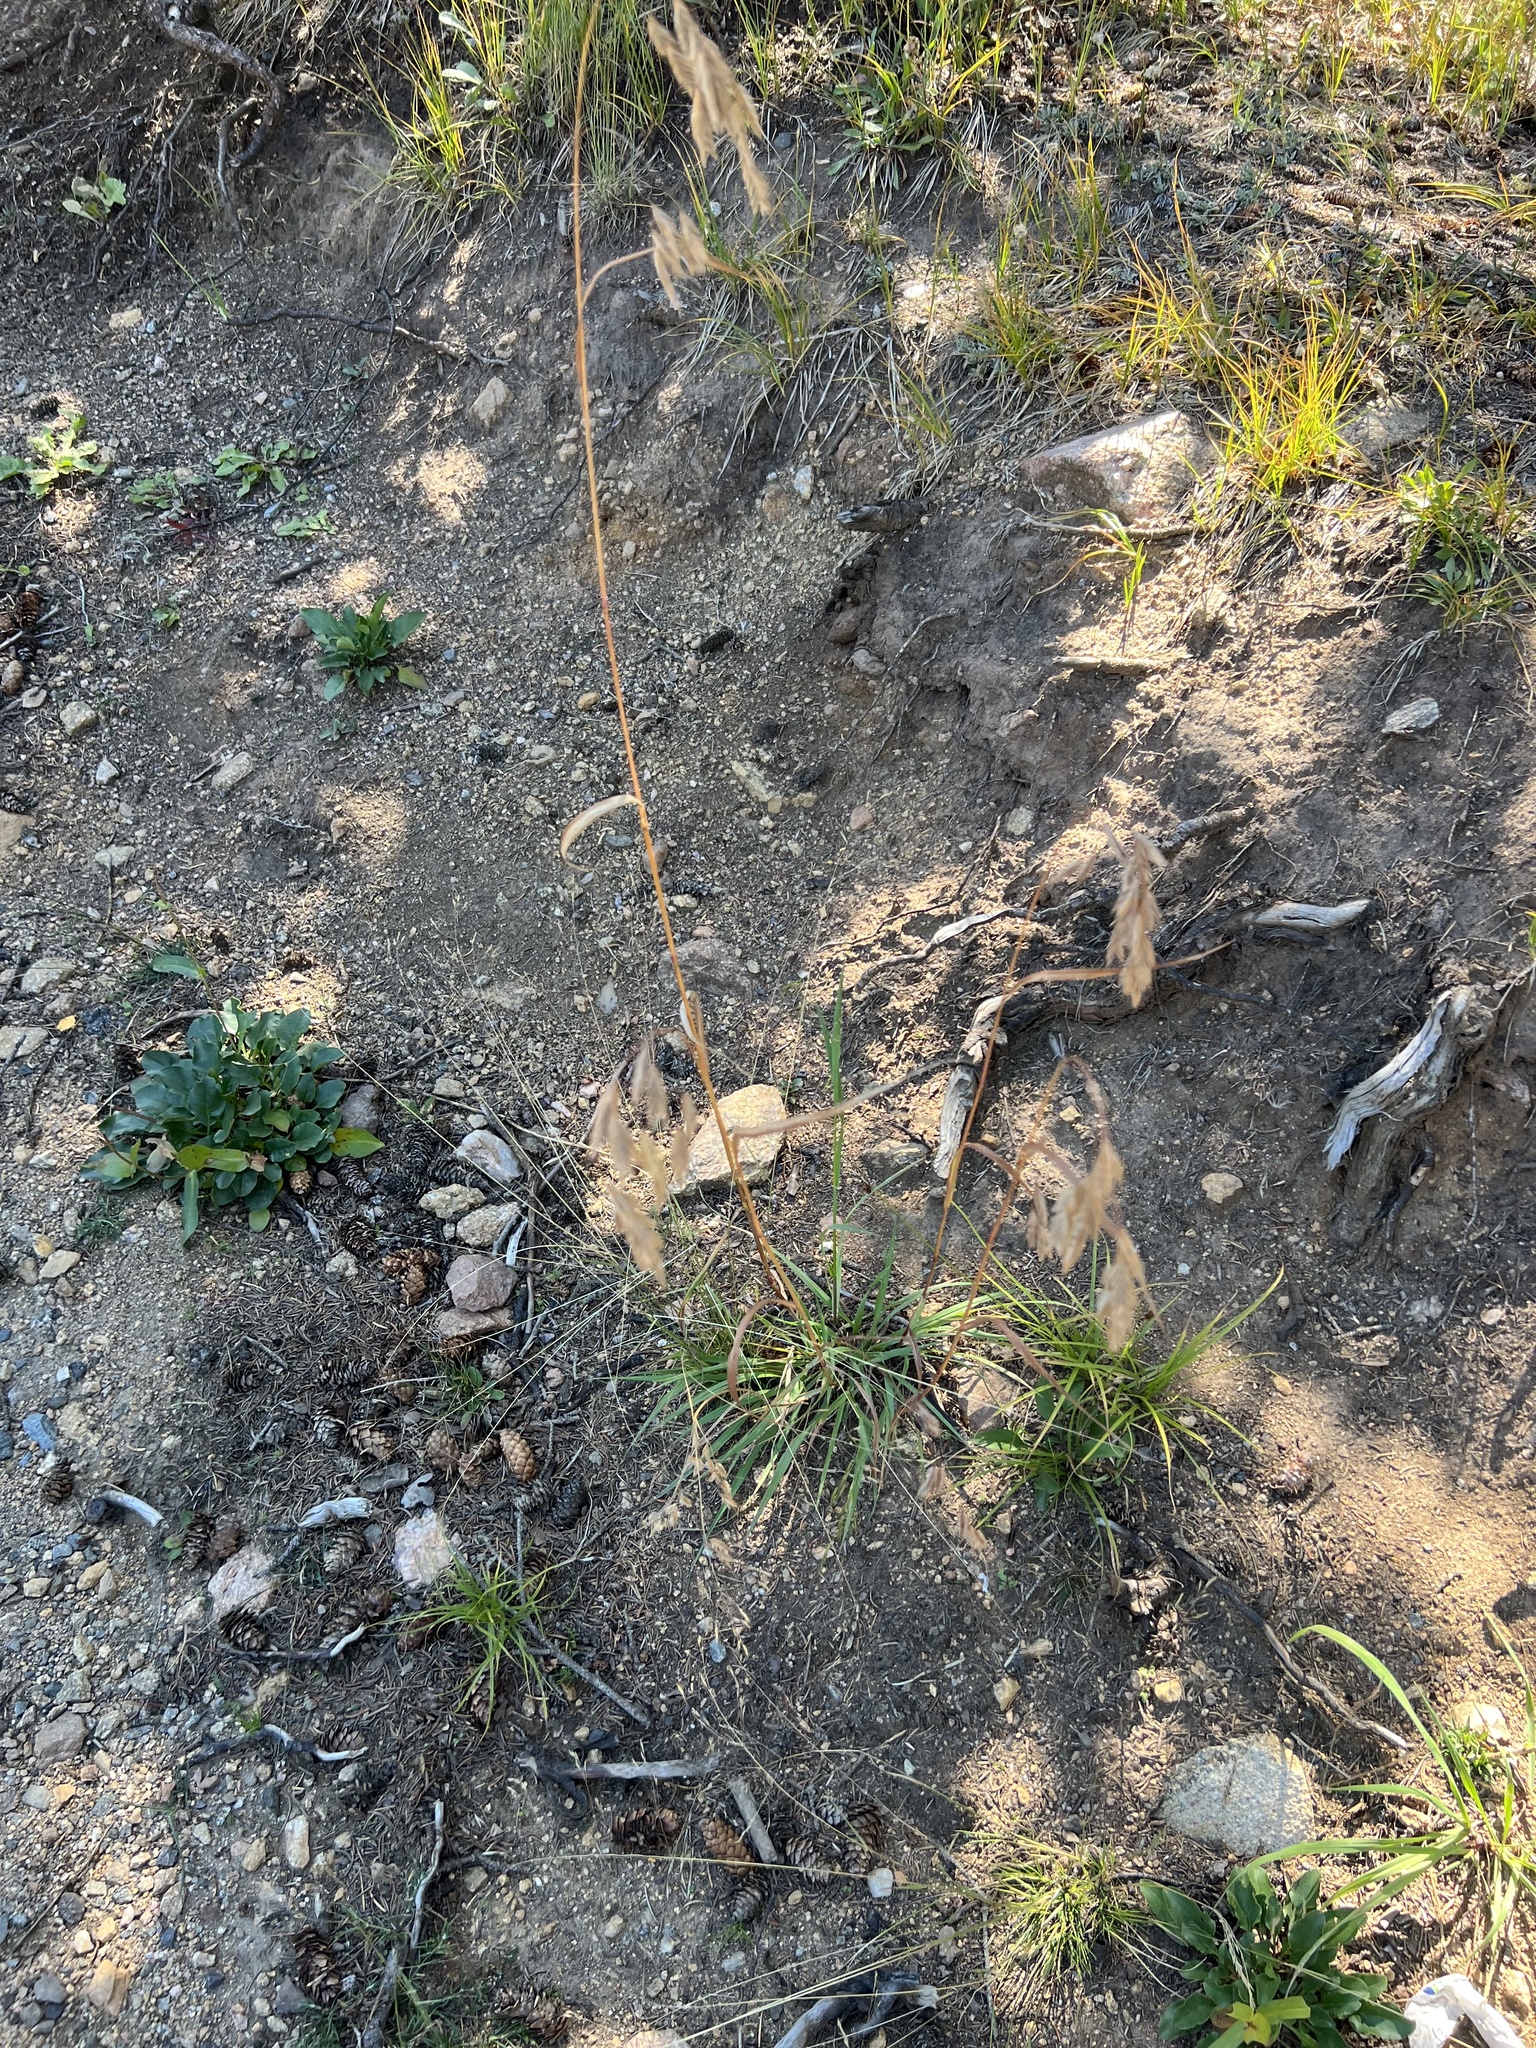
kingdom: Plantae
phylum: Tracheophyta
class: Liliopsida
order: Poales
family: Poaceae
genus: Bromus
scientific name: Bromus ciliatus
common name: Fringe brome
